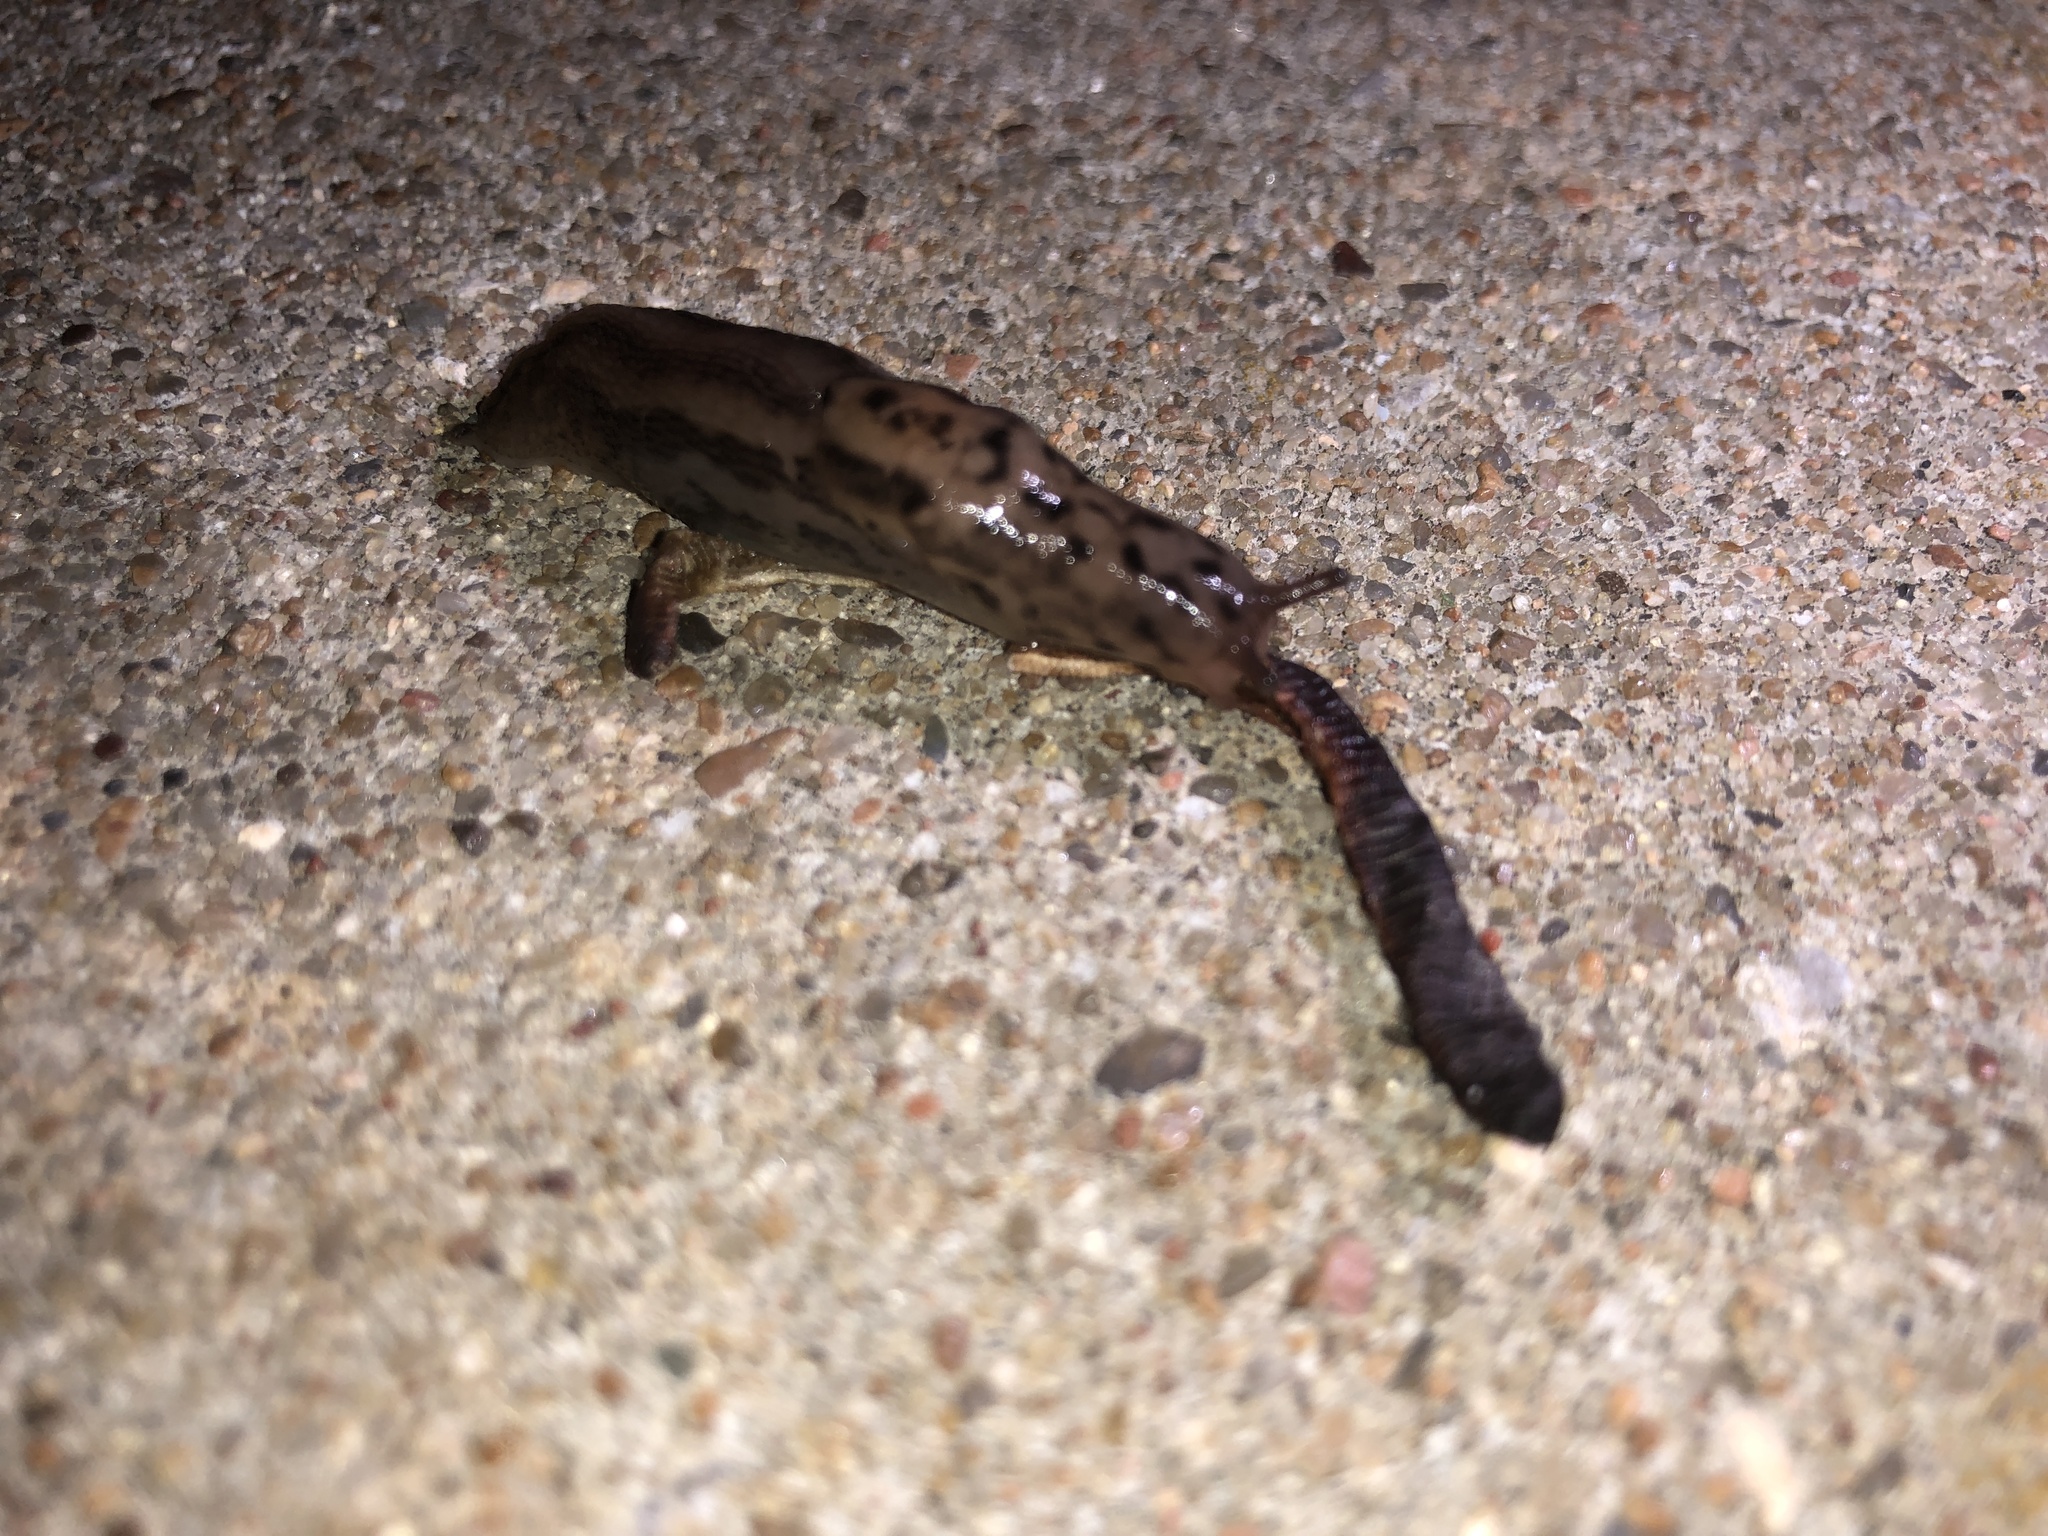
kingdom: Animalia
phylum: Mollusca
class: Gastropoda
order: Stylommatophora
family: Limacidae
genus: Limax
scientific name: Limax maximus
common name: Great grey slug
